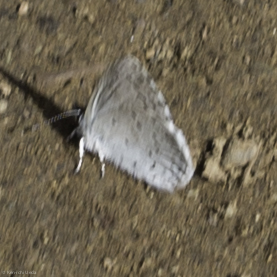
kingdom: Animalia
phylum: Arthropoda
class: Insecta
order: Lepidoptera
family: Lycaenidae
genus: Celastrina
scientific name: Celastrina ladon
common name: Spring azure
